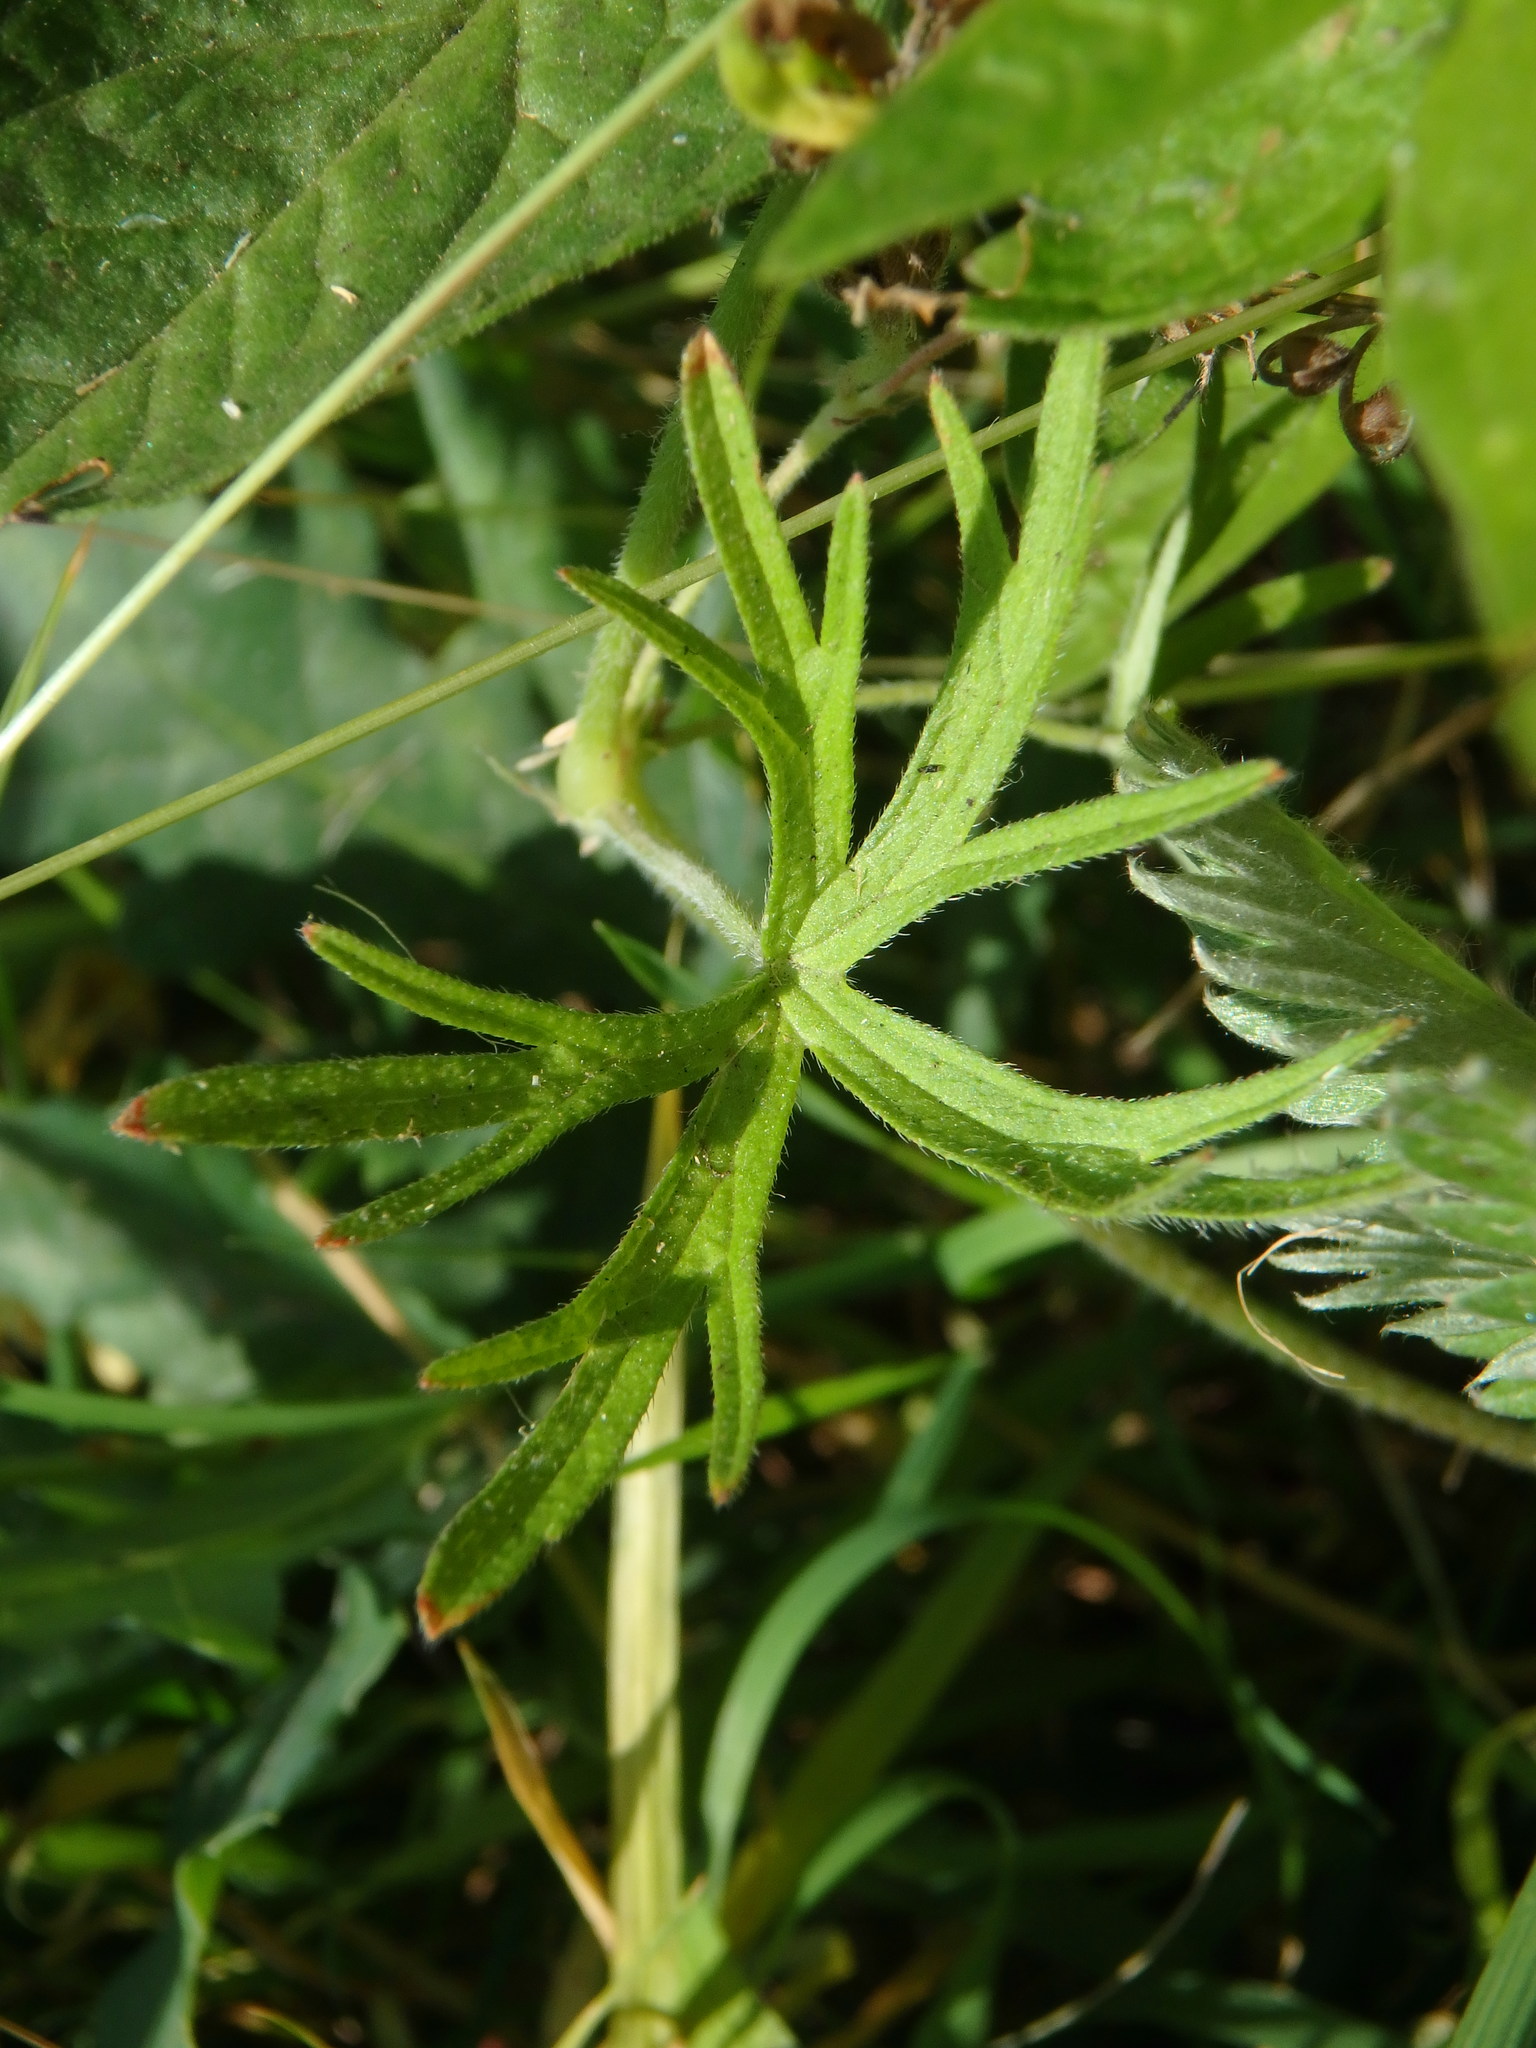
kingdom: Plantae
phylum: Tracheophyta
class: Magnoliopsida
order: Geraniales
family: Geraniaceae
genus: Geranium
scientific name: Geranium dissectum
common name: Cut-leaved crane's-bill
